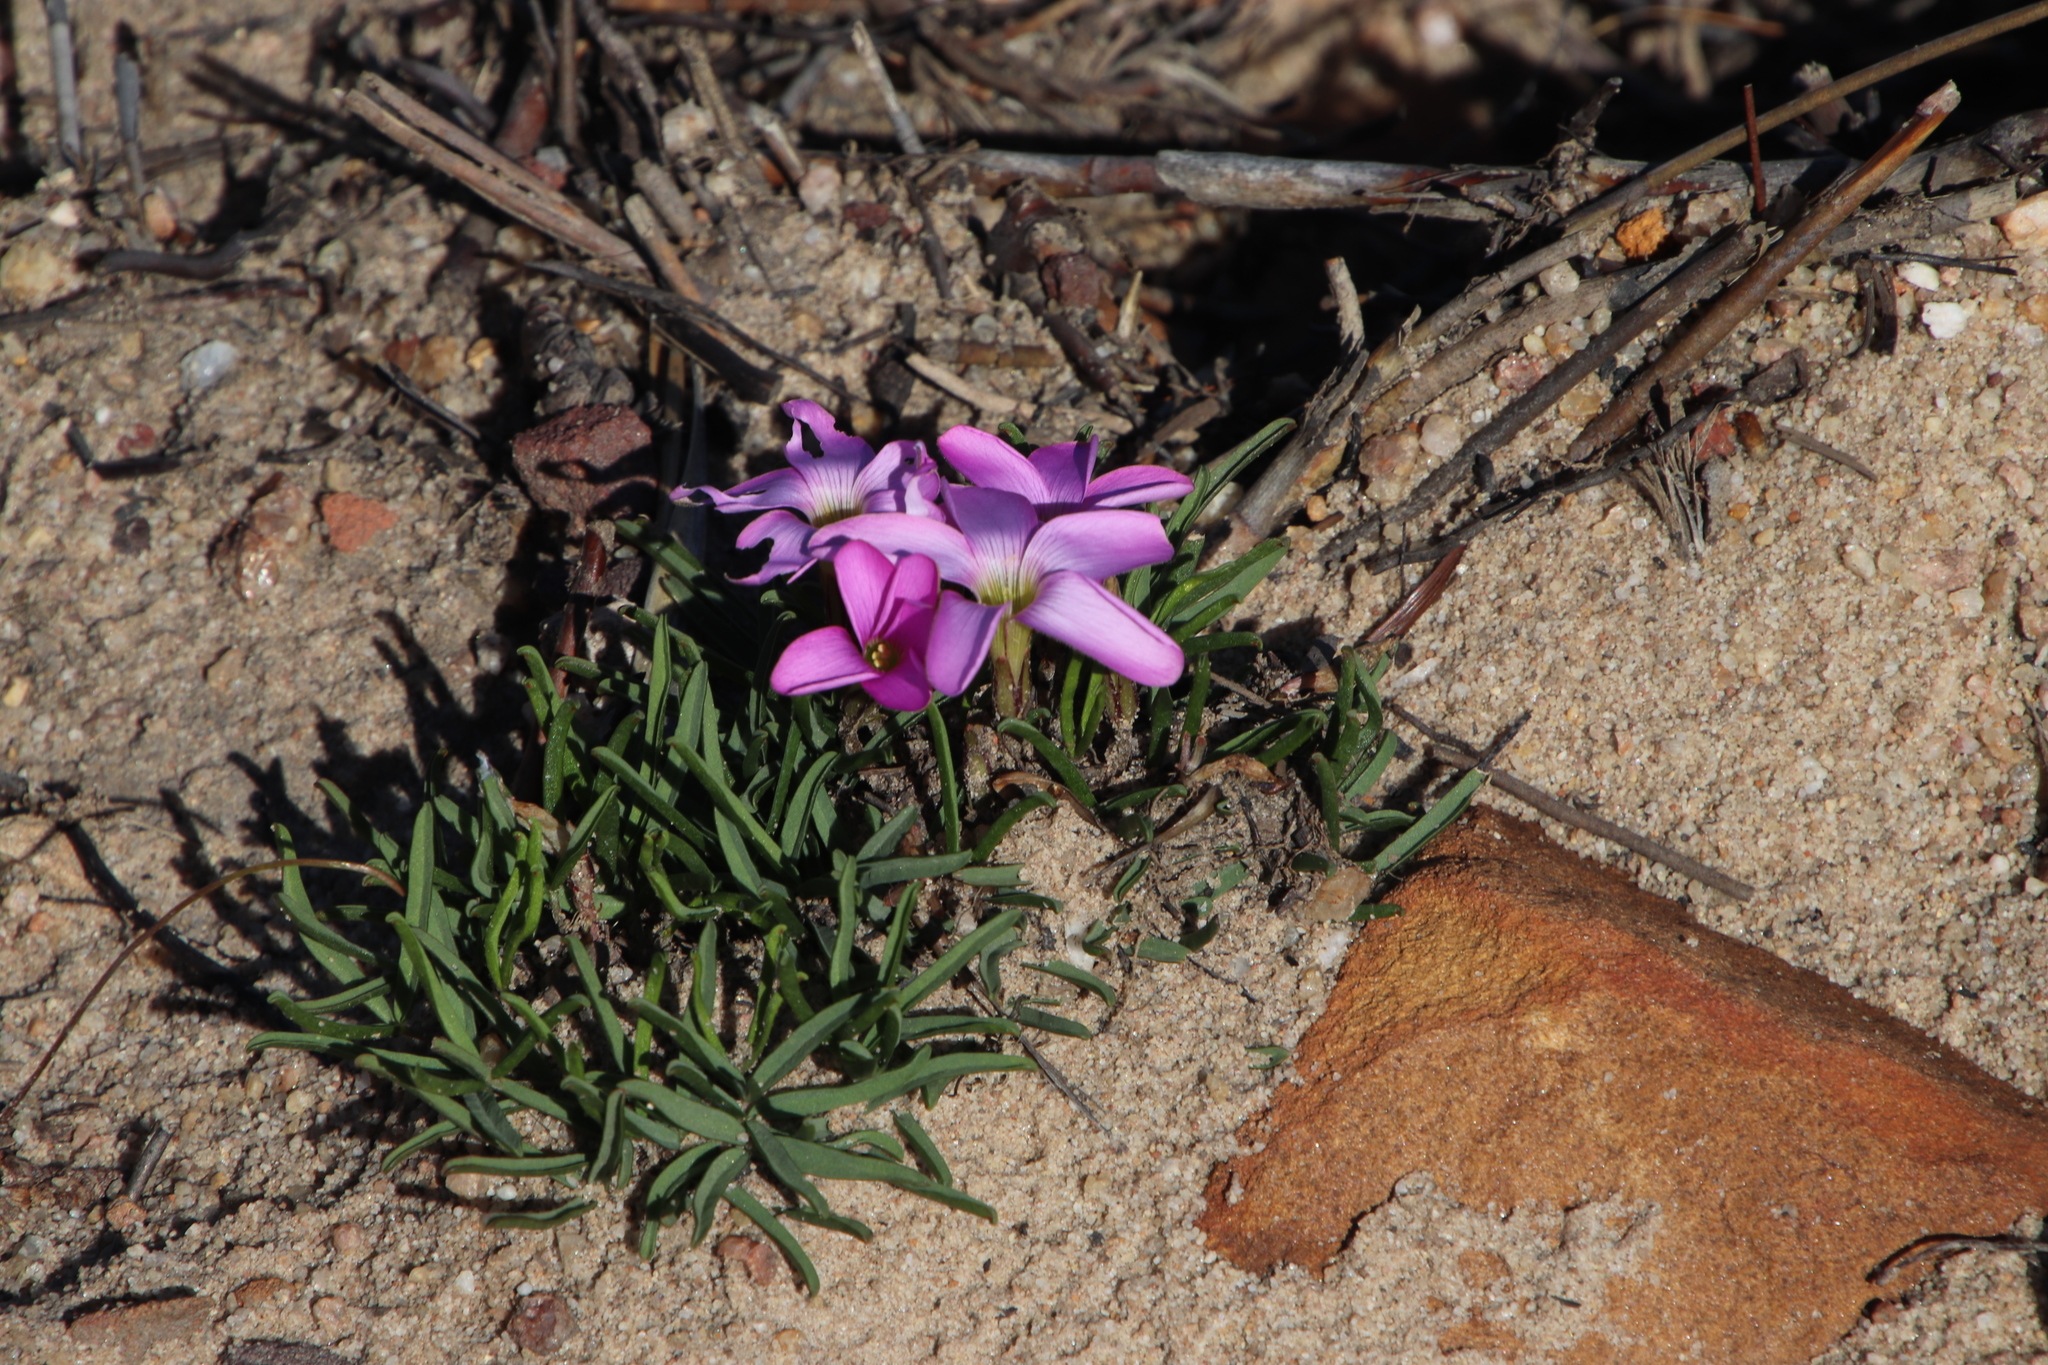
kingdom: Plantae
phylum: Tracheophyta
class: Magnoliopsida
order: Oxalidales
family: Oxalidaceae
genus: Oxalis
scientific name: Oxalis polyphylla
